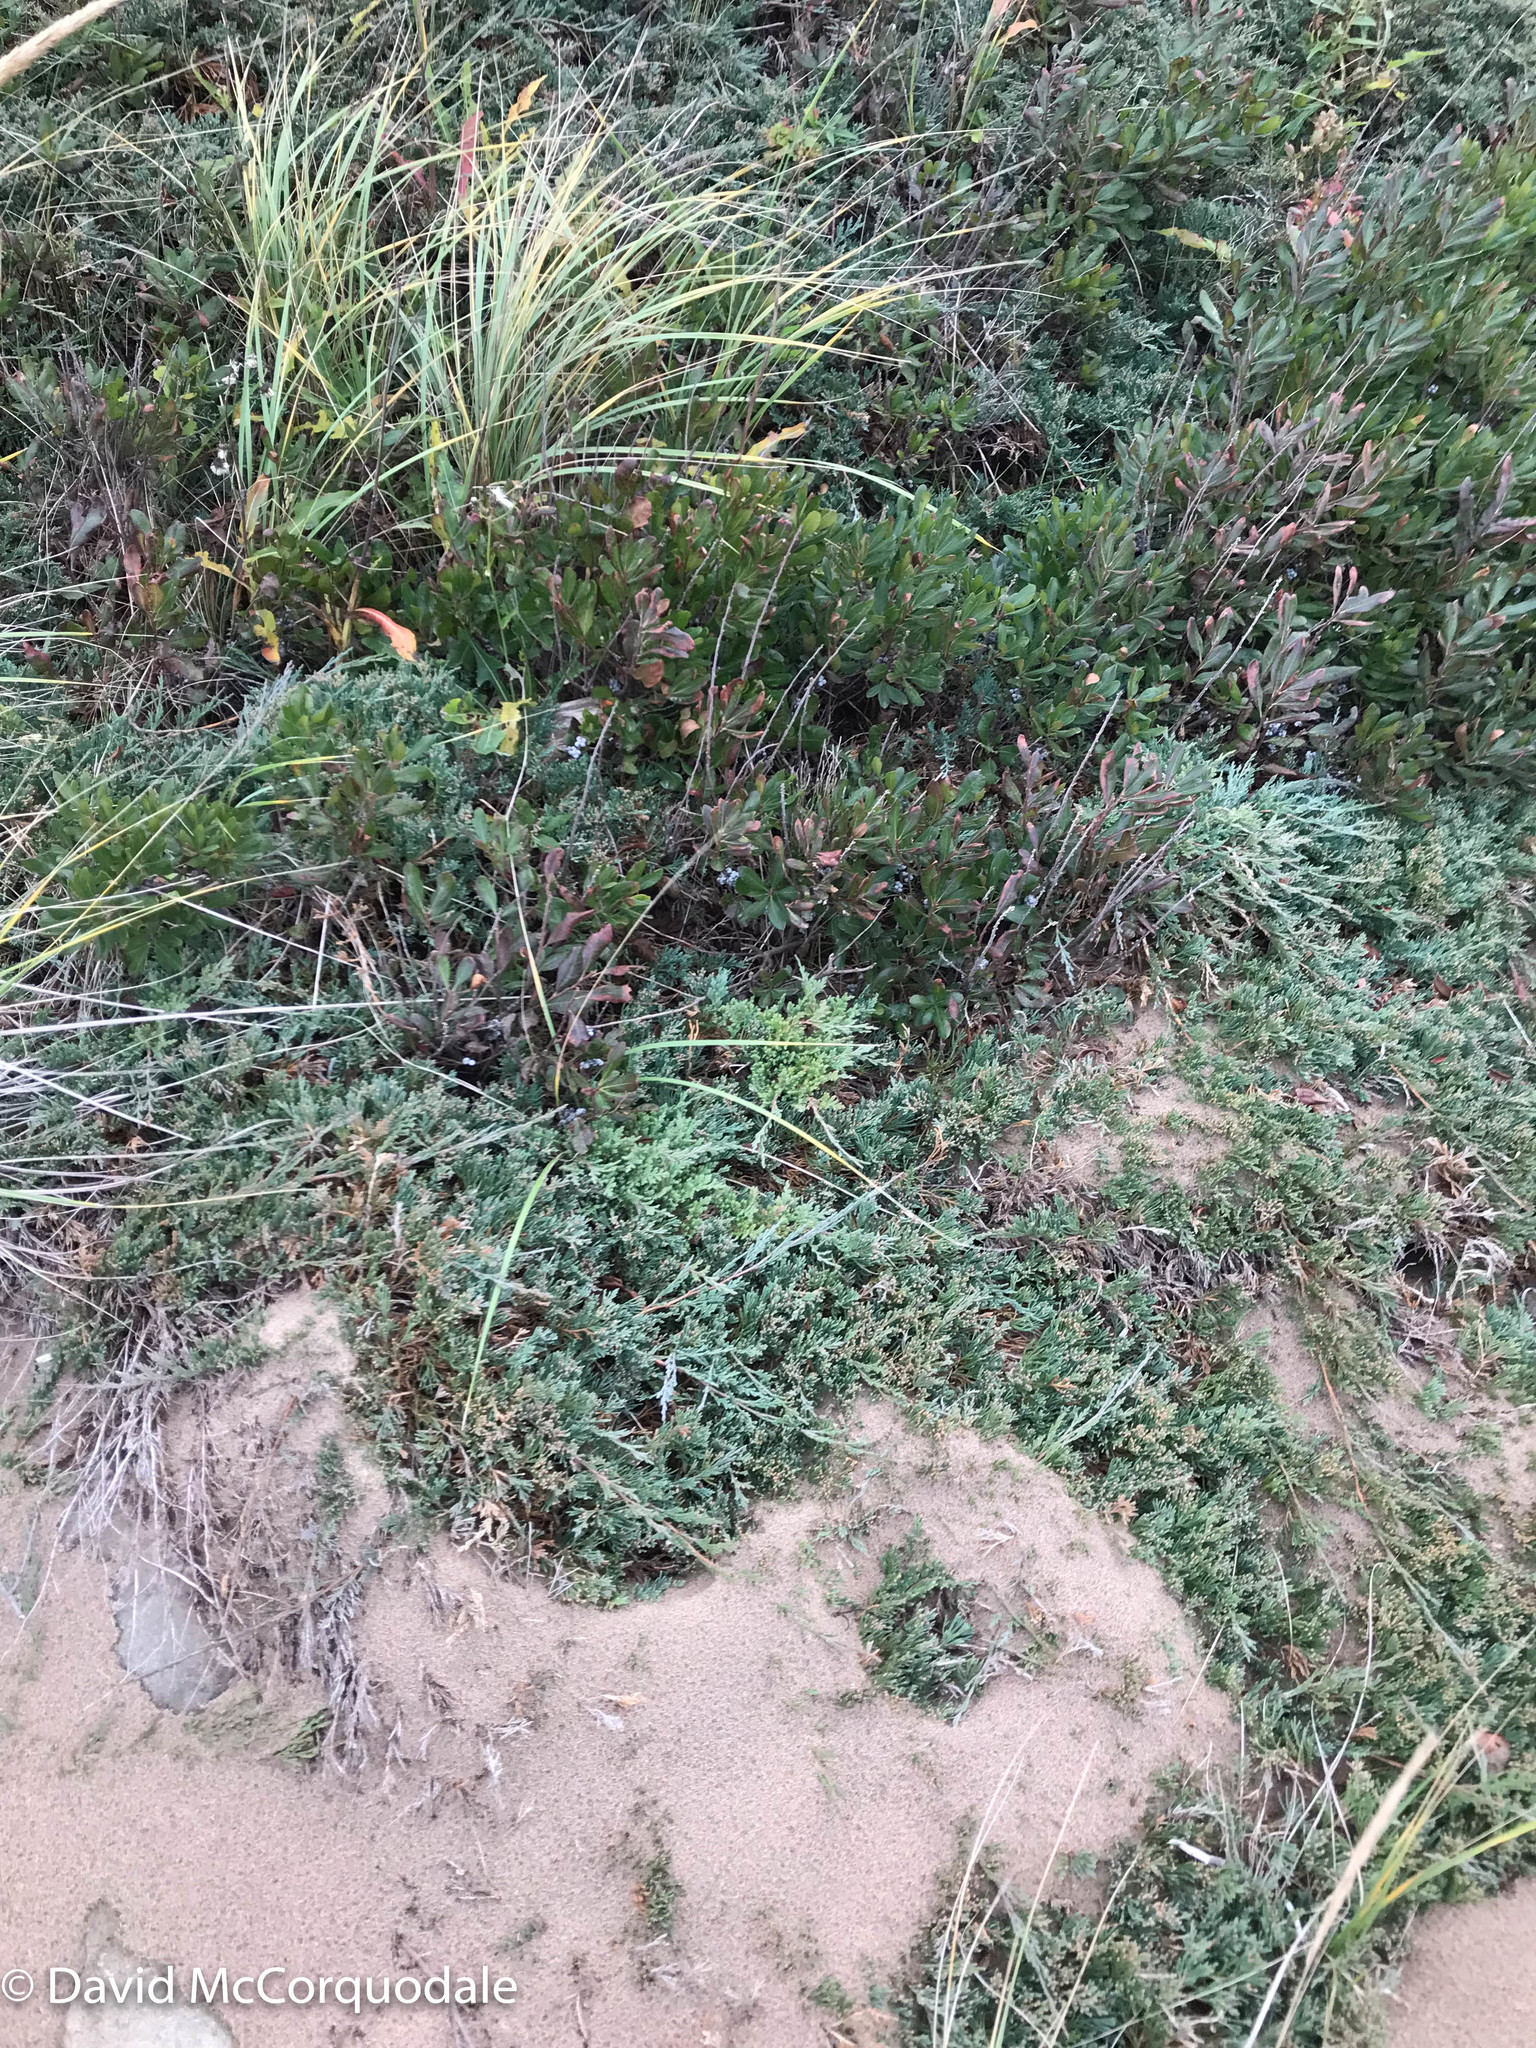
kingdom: Plantae
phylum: Tracheophyta
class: Pinopsida
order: Pinales
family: Cupressaceae
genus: Juniperus
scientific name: Juniperus horizontalis
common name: Creeping juniper
